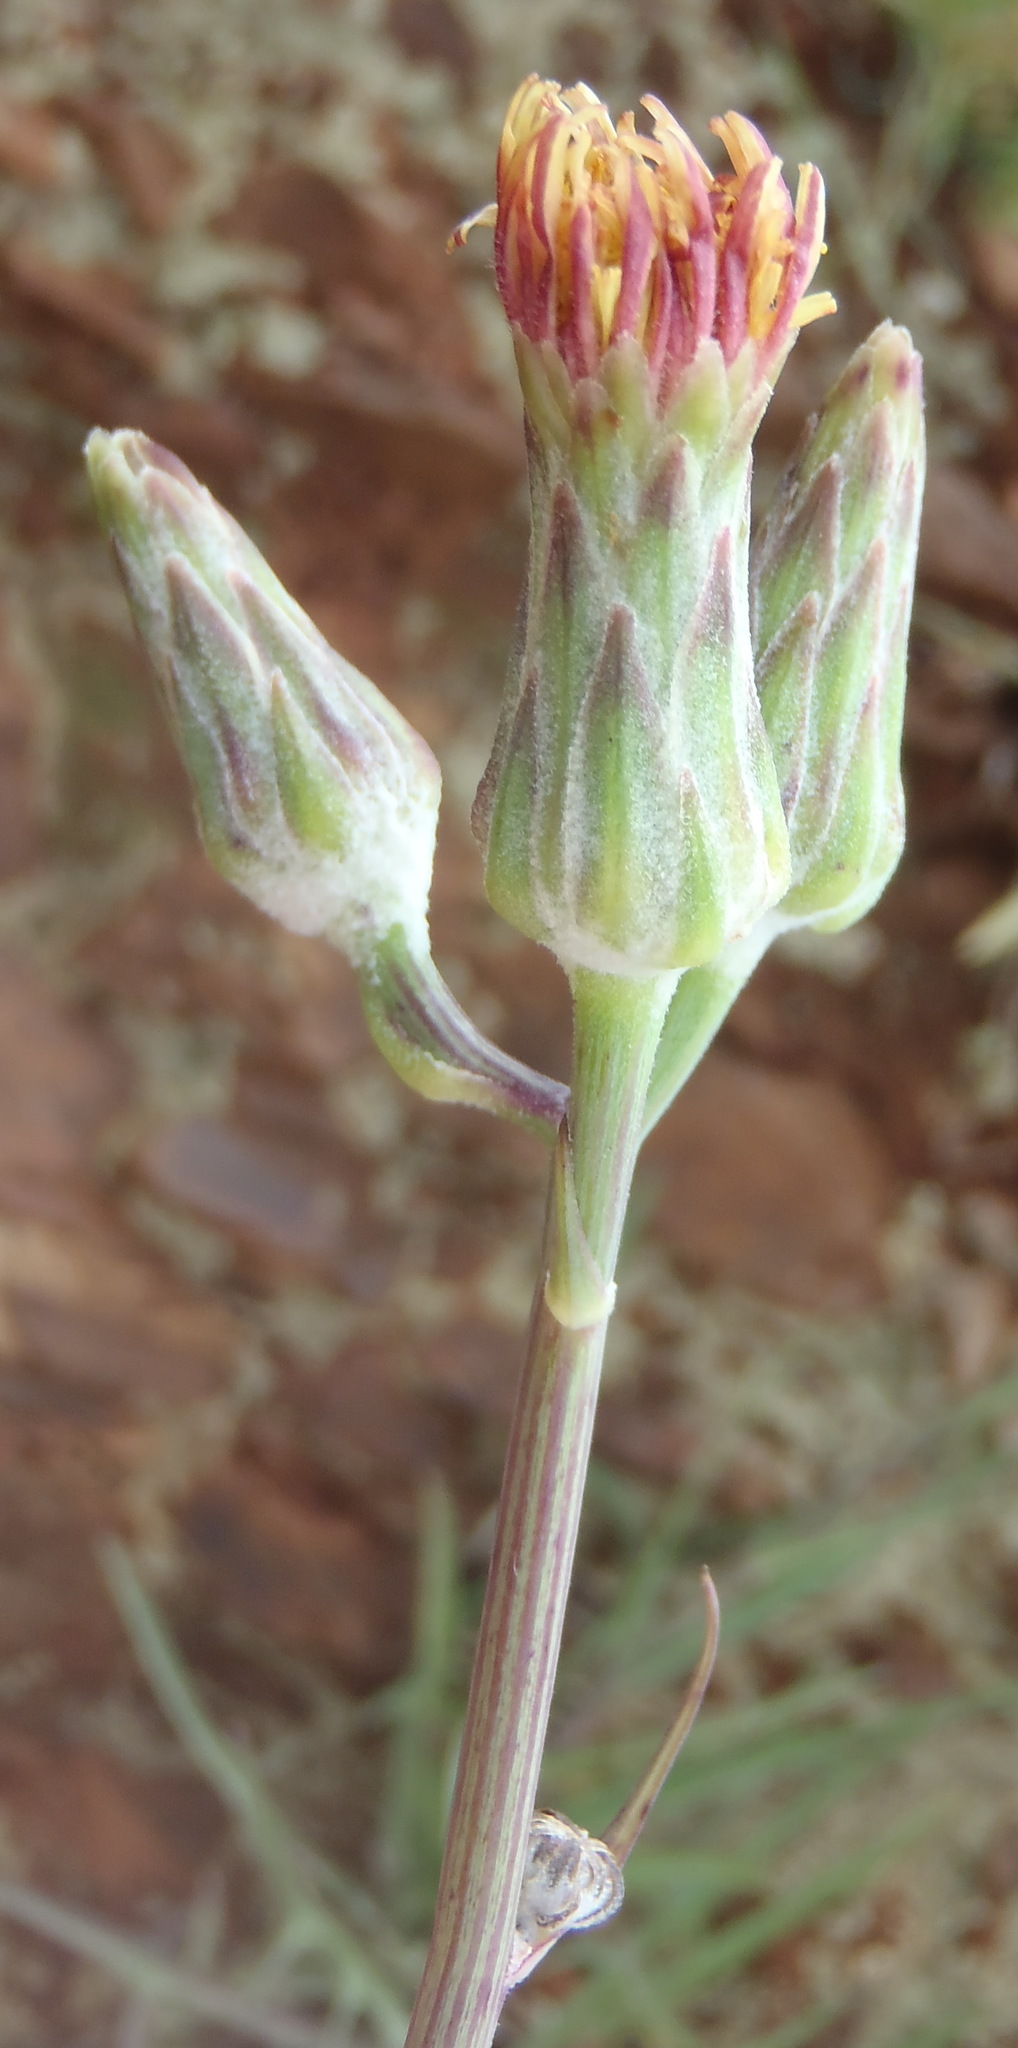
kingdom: Plantae
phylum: Tracheophyta
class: Magnoliopsida
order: Asterales
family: Asteraceae
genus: Sonchus
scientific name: Sonchus dregeanus
